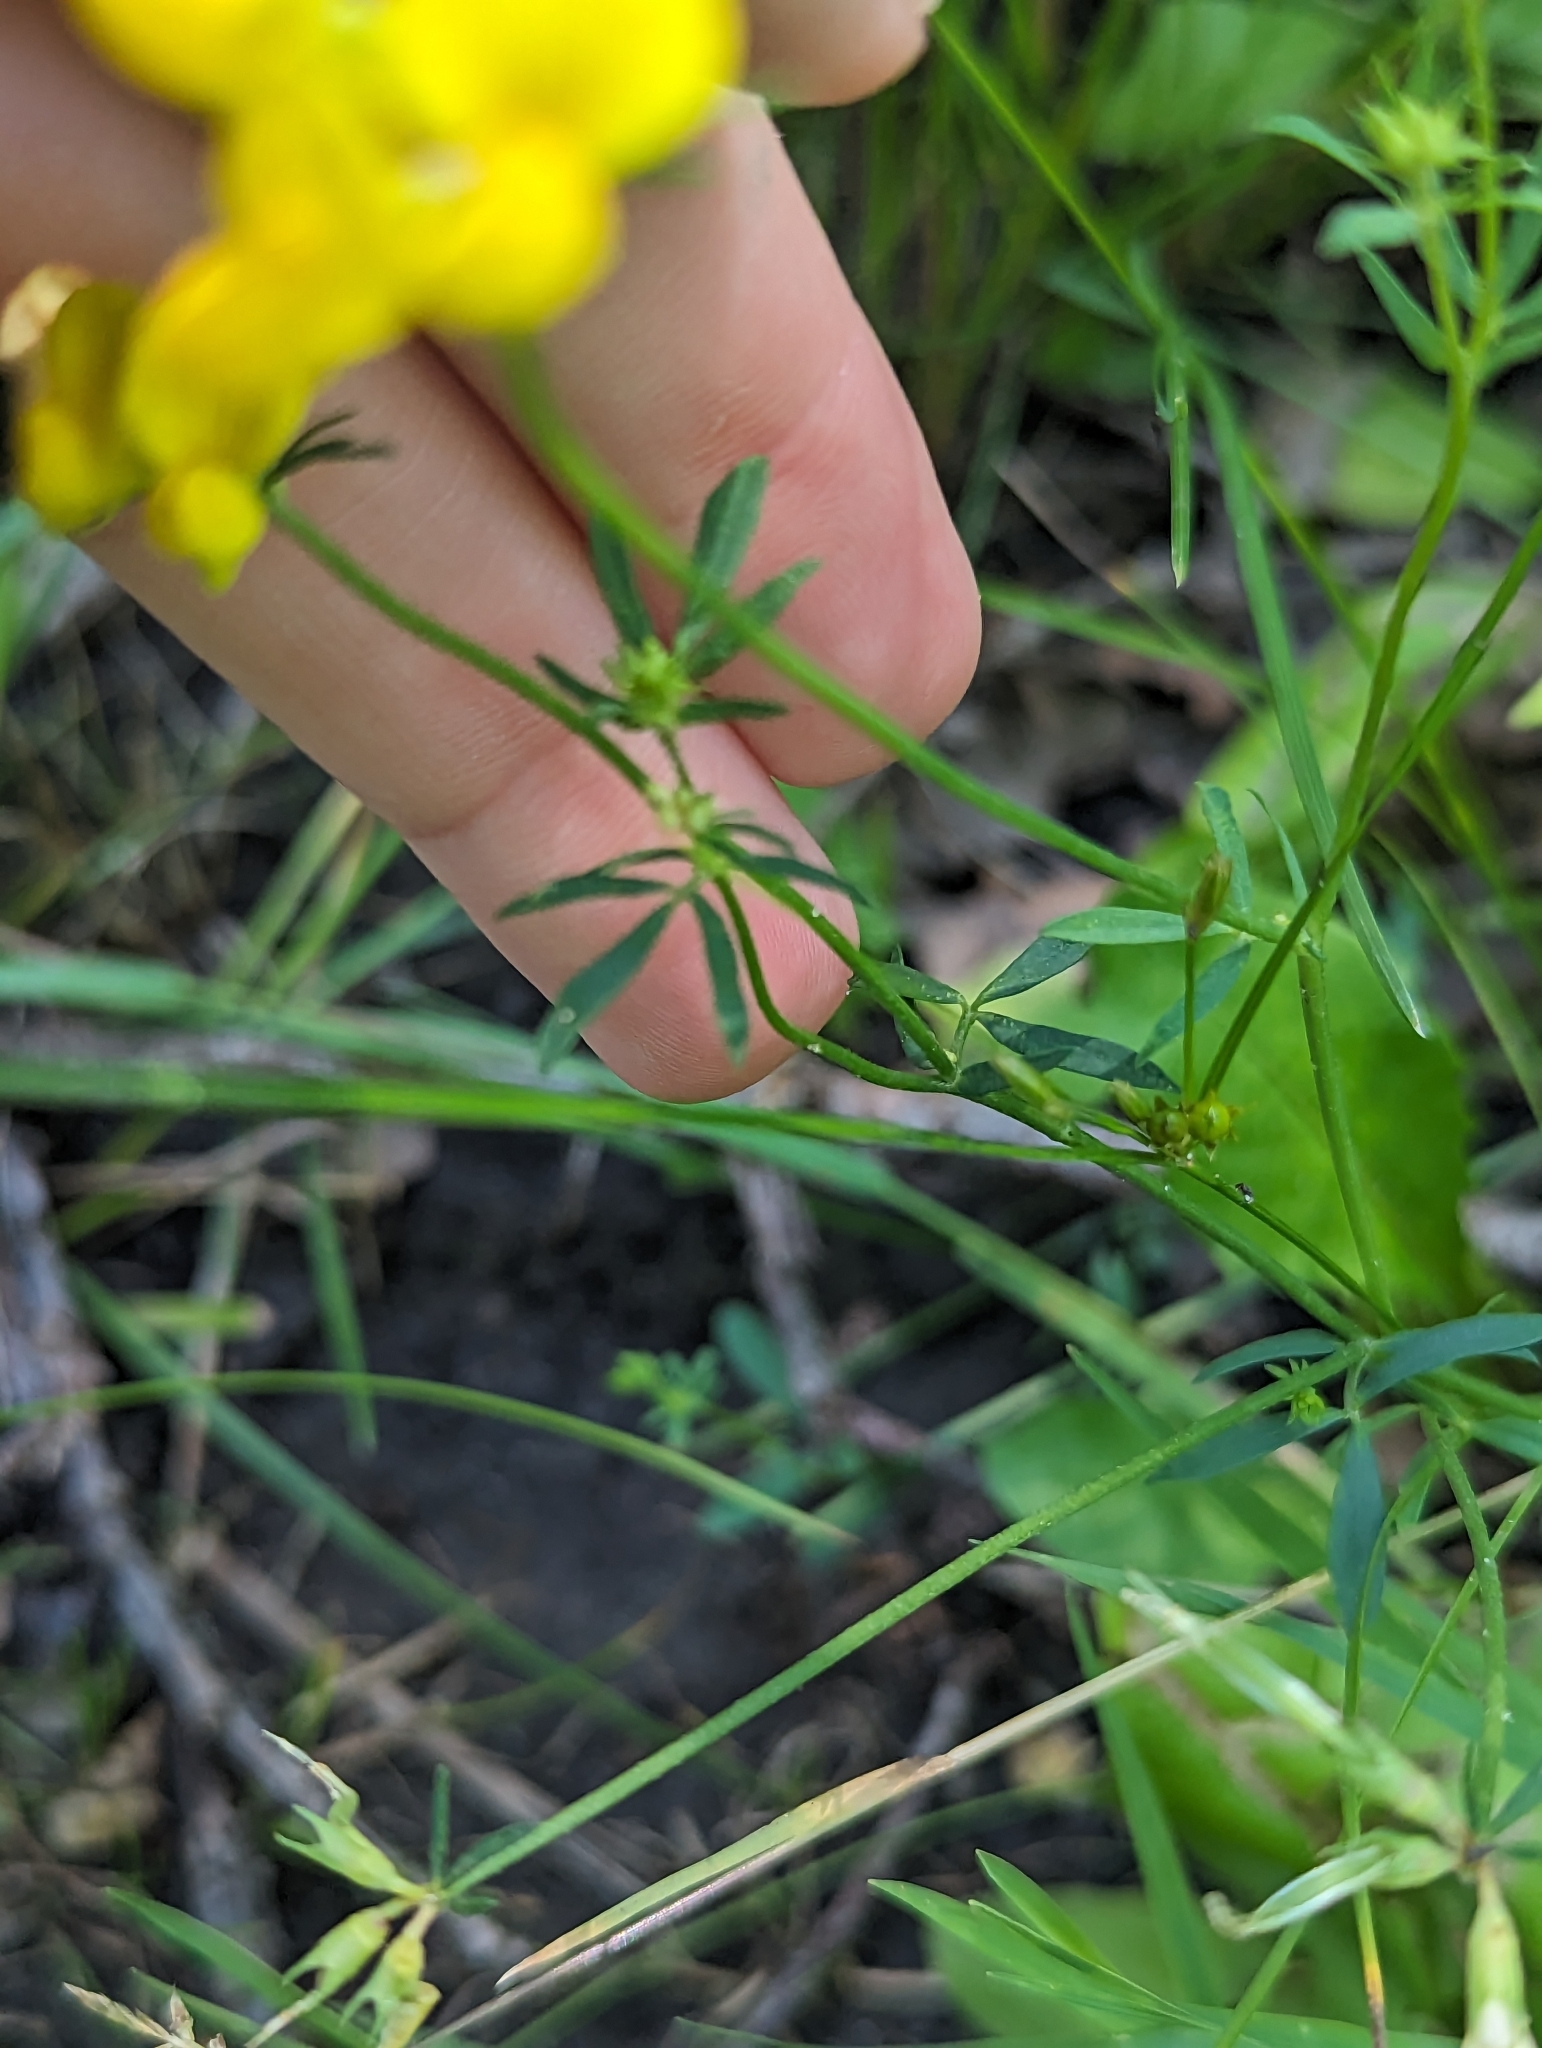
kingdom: Plantae
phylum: Tracheophyta
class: Magnoliopsida
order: Fabales
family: Fabaceae
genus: Lotus
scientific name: Lotus tenuis
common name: Narrow-leaved bird's-foot-trefoil
